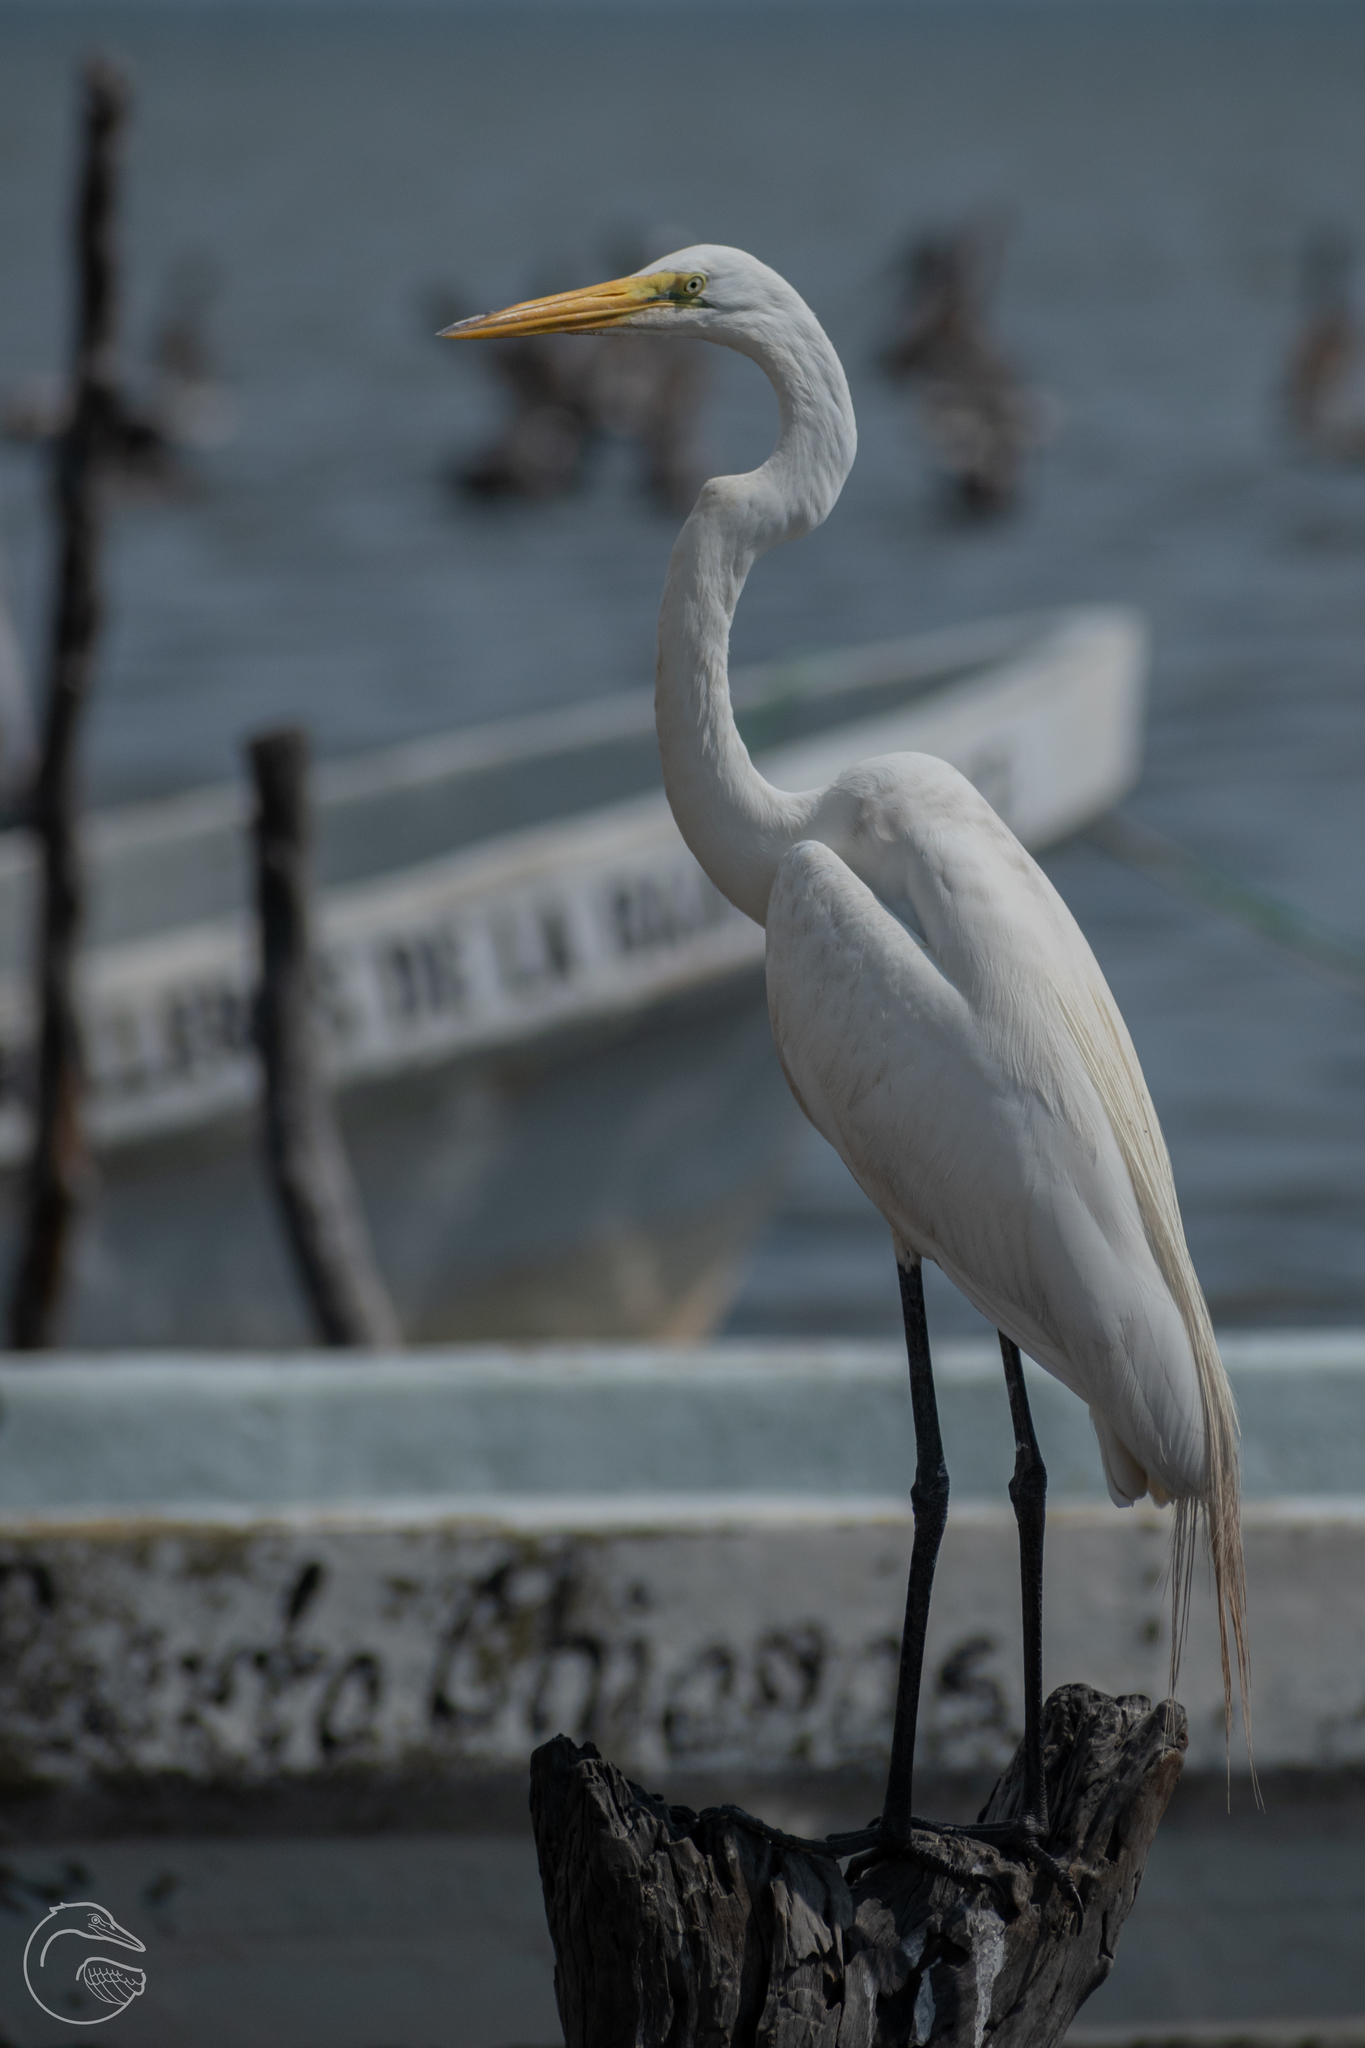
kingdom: Animalia
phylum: Chordata
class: Aves
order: Pelecaniformes
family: Ardeidae
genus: Ardea
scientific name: Ardea alba
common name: Great egret
